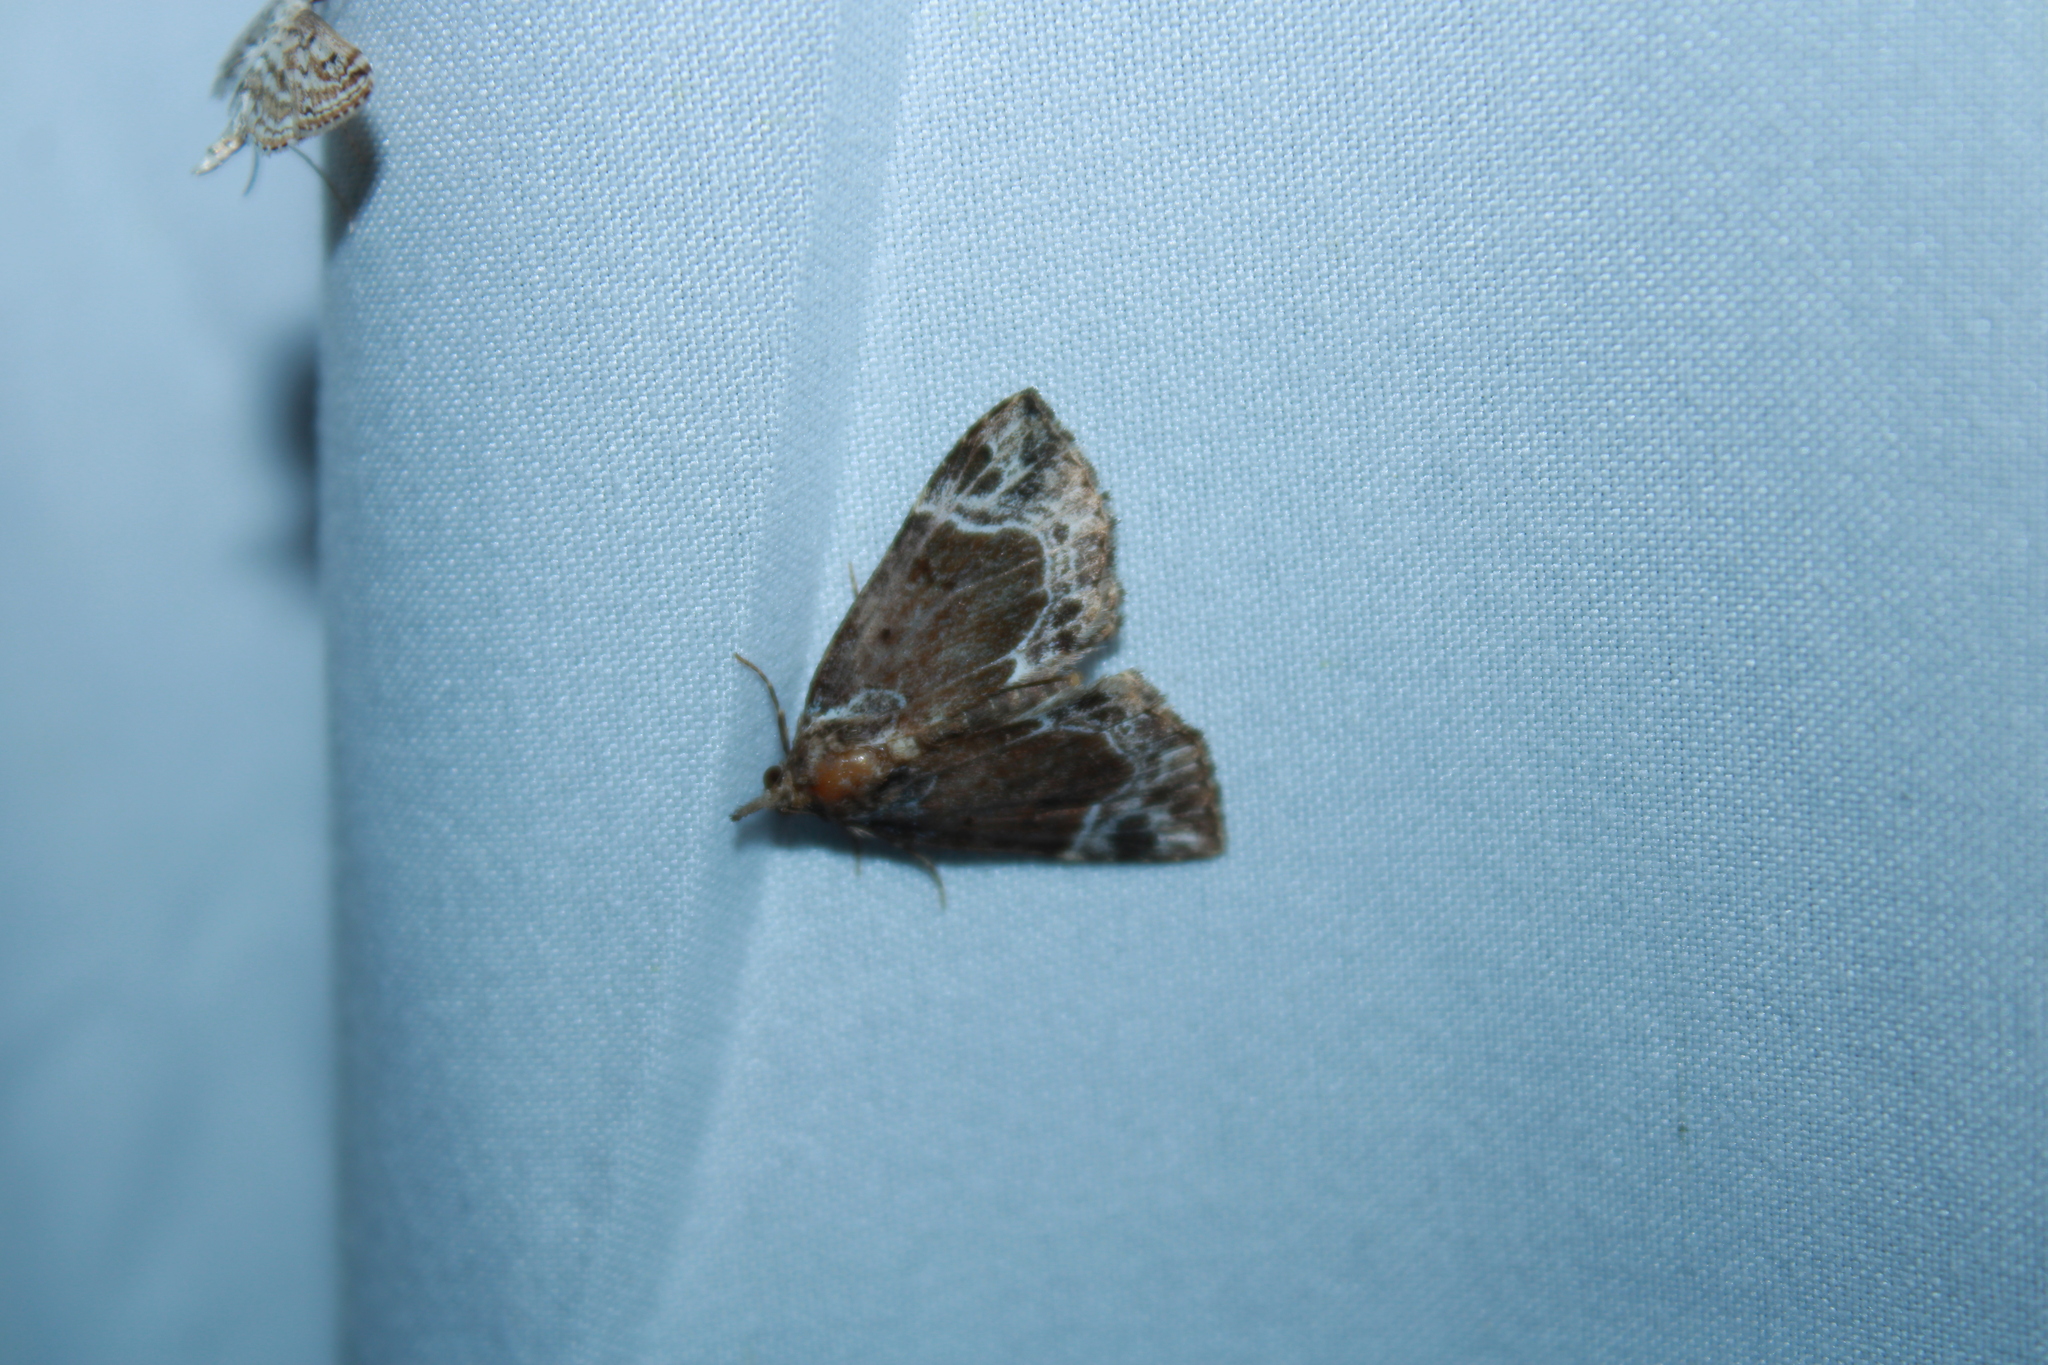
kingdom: Animalia
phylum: Arthropoda
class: Insecta
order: Lepidoptera
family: Erebidae
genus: Hypena
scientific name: Hypena abalienalis
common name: White-lined snout
